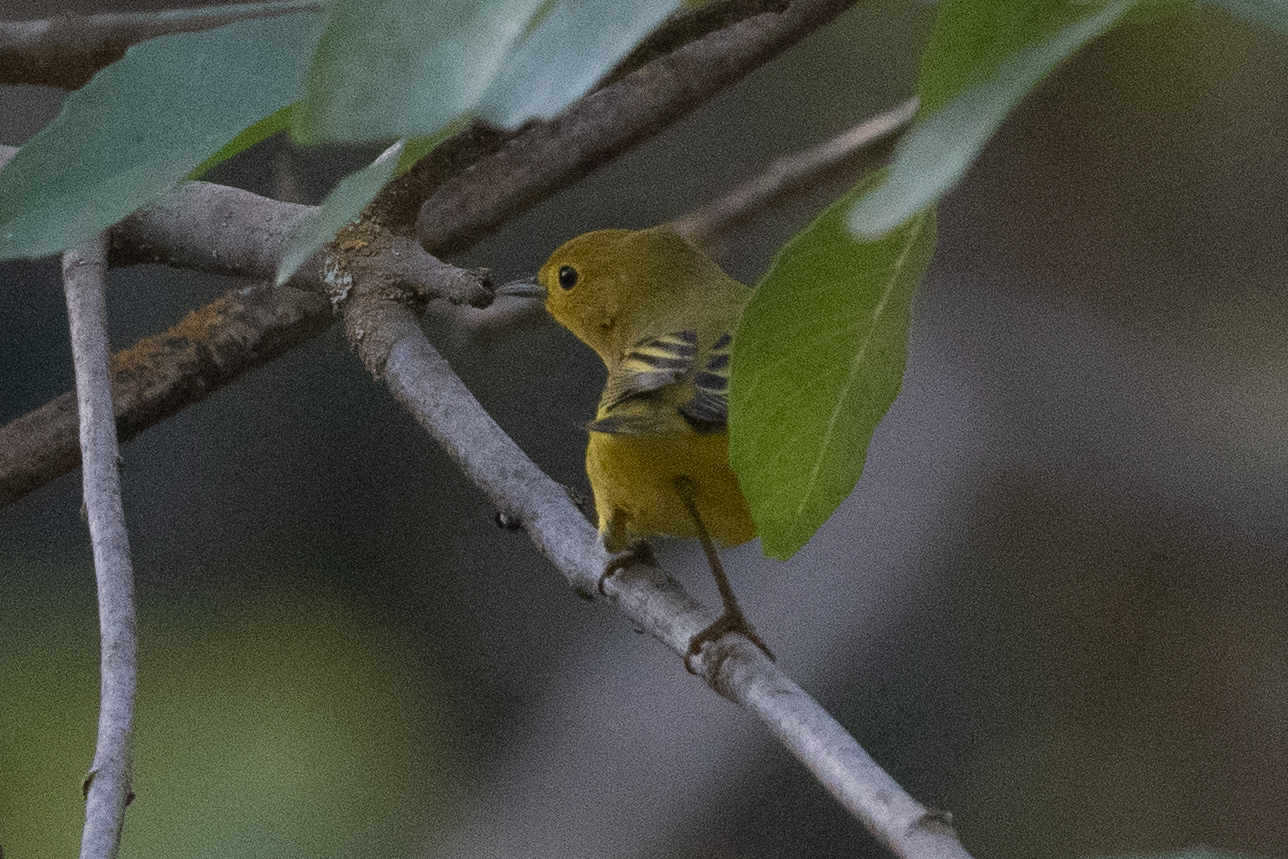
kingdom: Animalia
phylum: Chordata
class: Aves
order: Passeriformes
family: Parulidae
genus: Setophaga
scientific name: Setophaga petechia
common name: Yellow warbler
